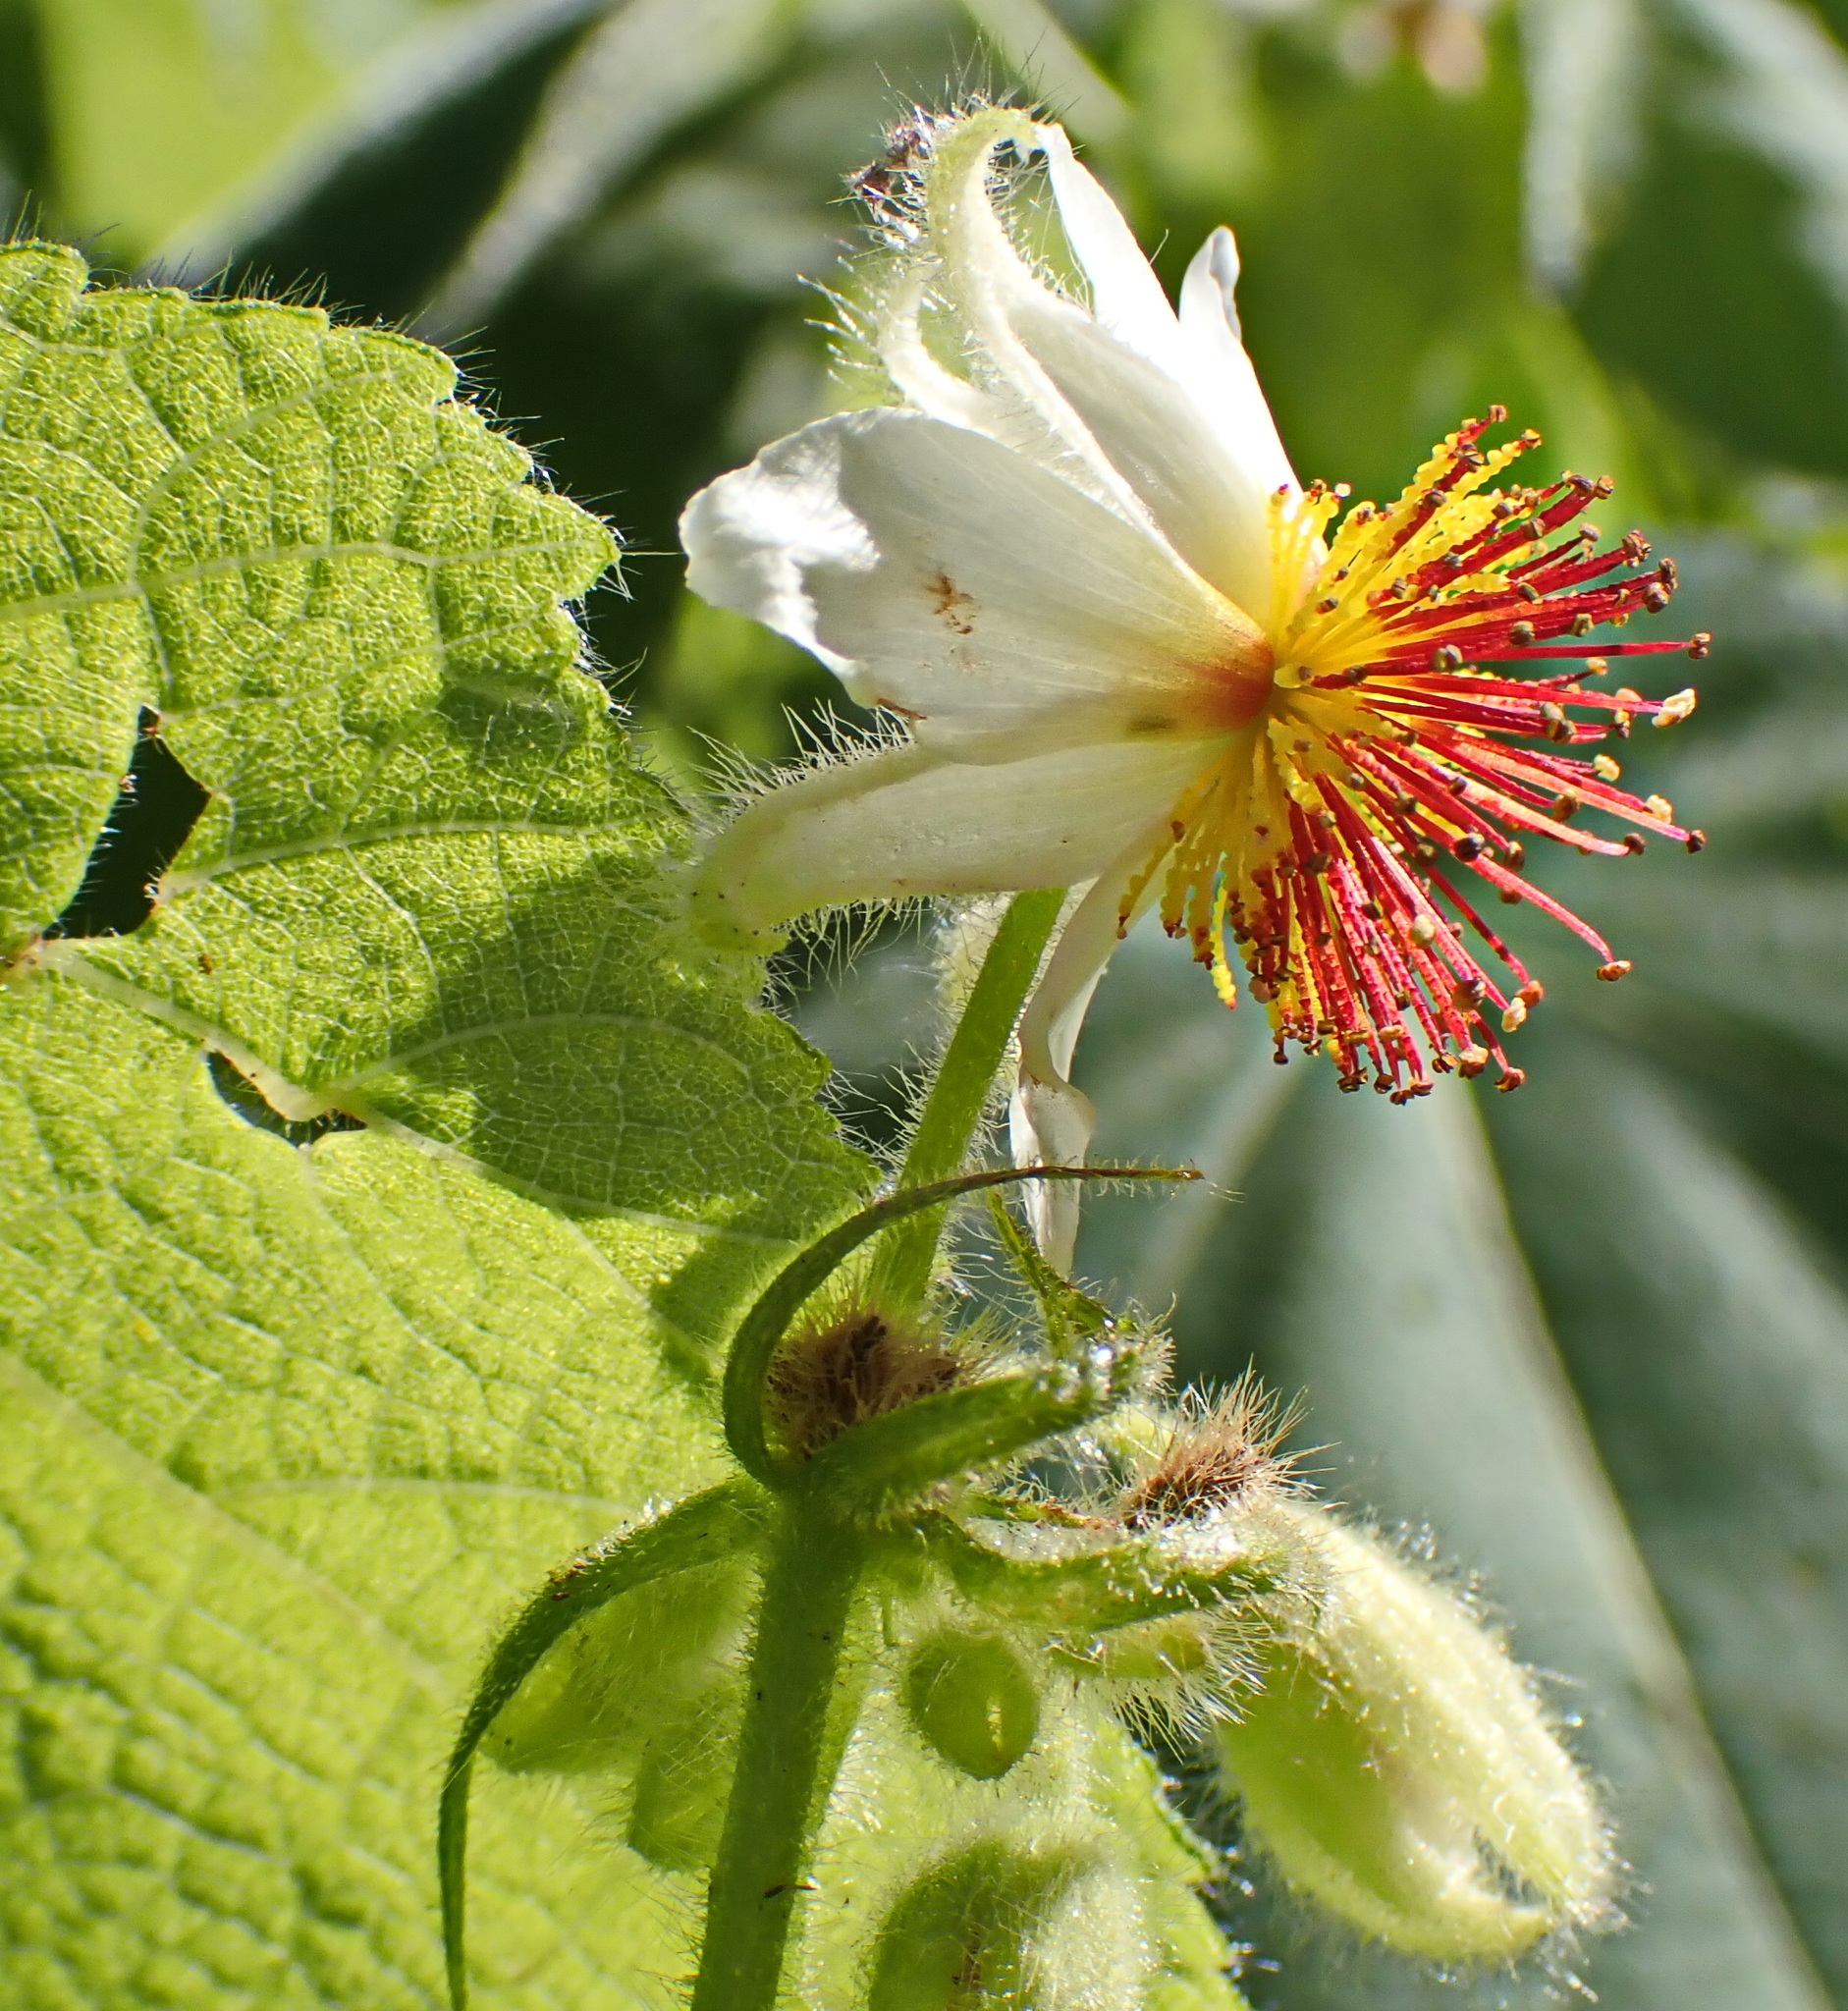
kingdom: Plantae
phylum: Tracheophyta
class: Magnoliopsida
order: Malvales
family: Malvaceae
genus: Sparrmannia
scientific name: Sparrmannia africana
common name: African-hemp
